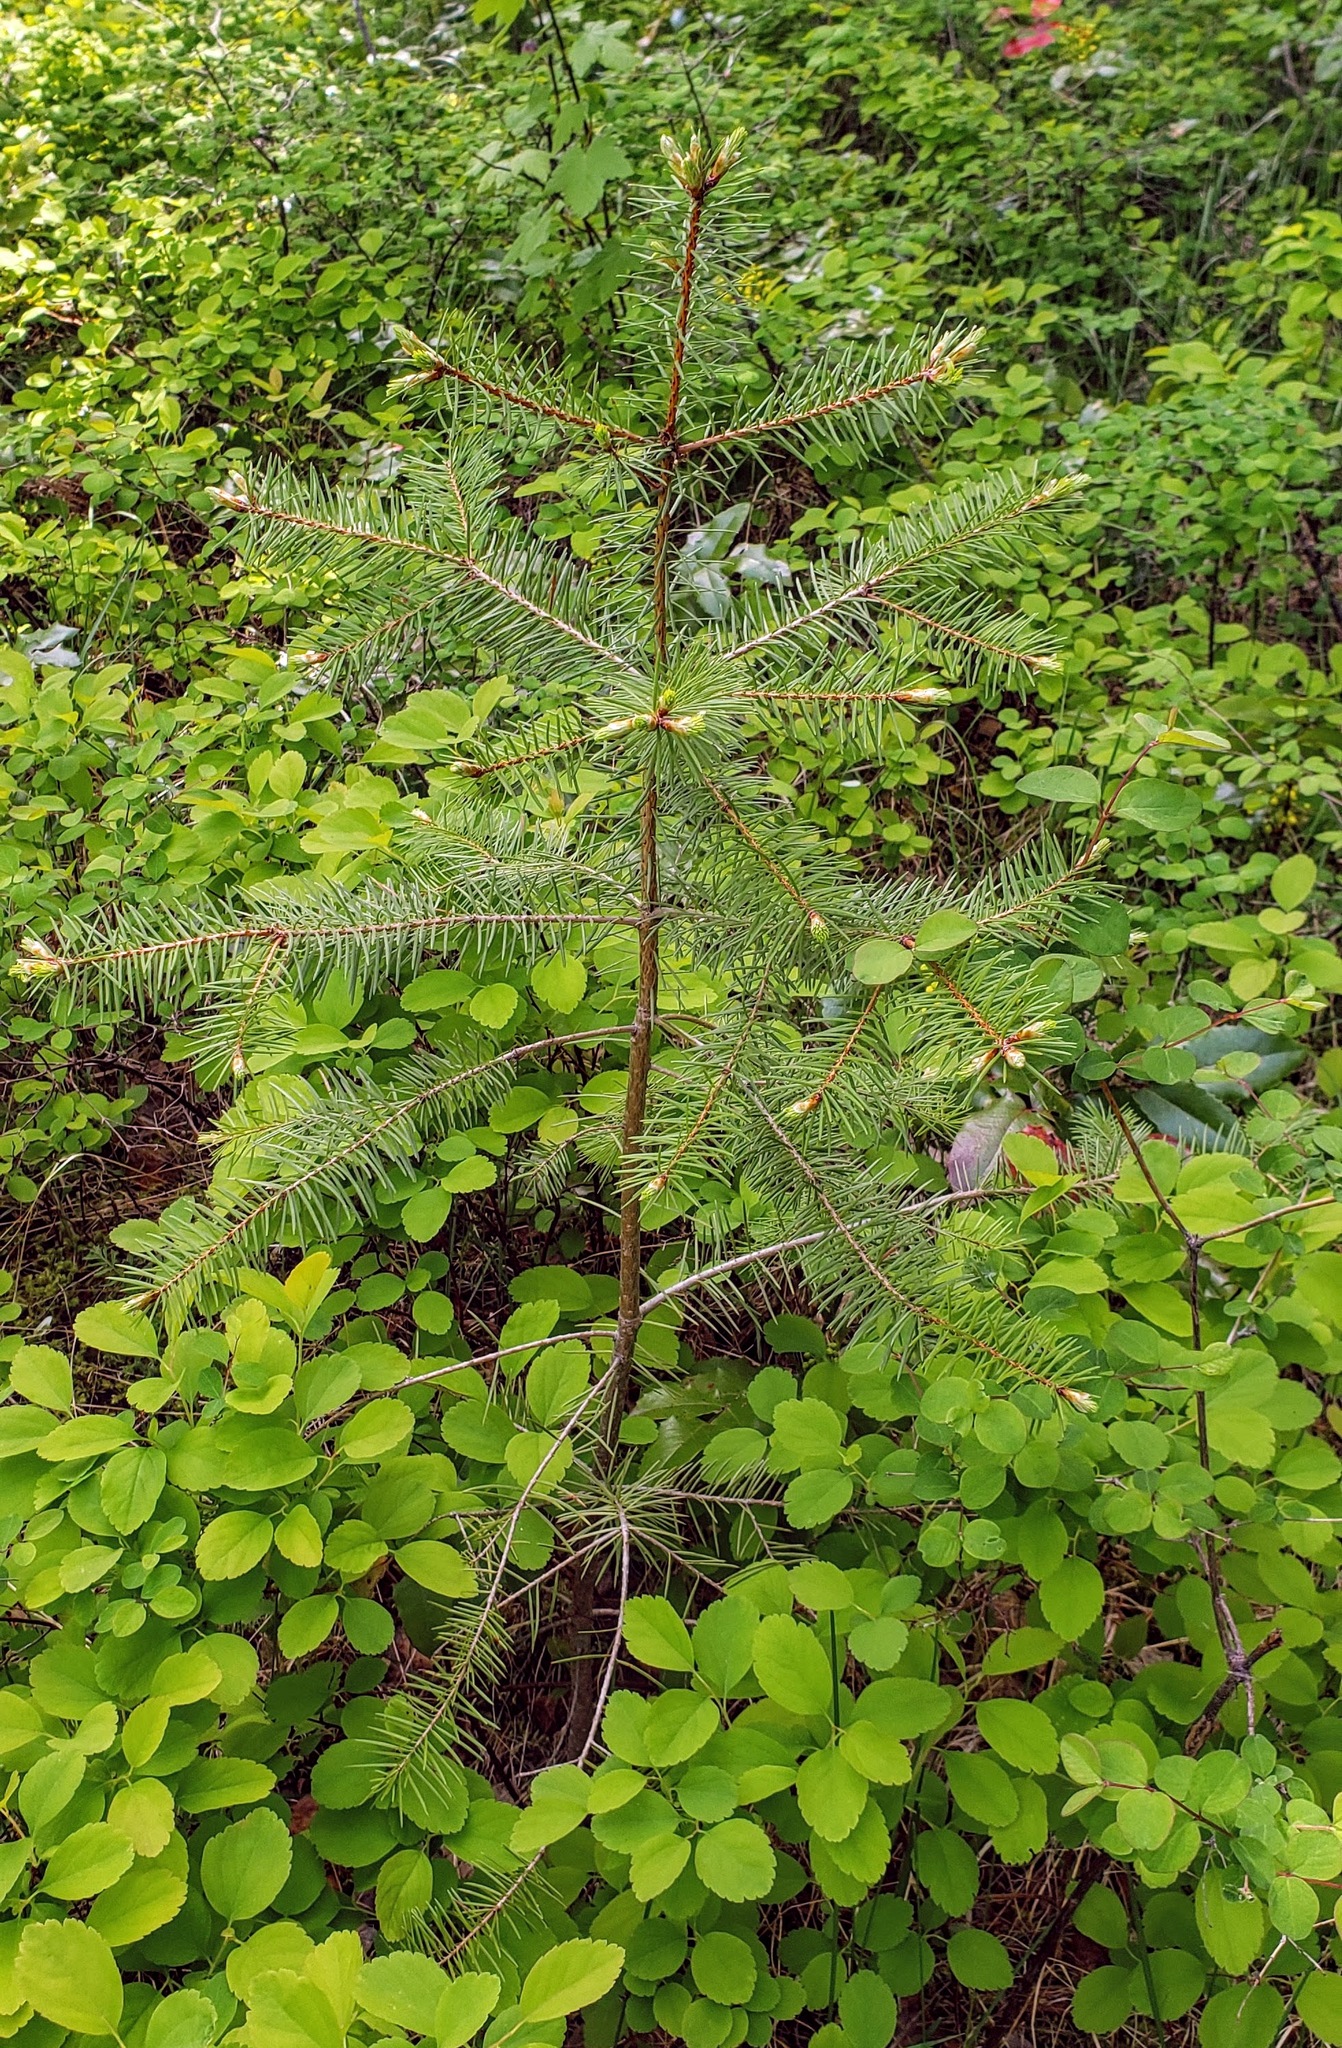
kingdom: Plantae
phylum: Tracheophyta
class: Pinopsida
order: Pinales
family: Pinaceae
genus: Pseudotsuga
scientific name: Pseudotsuga menziesii
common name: Douglas fir
